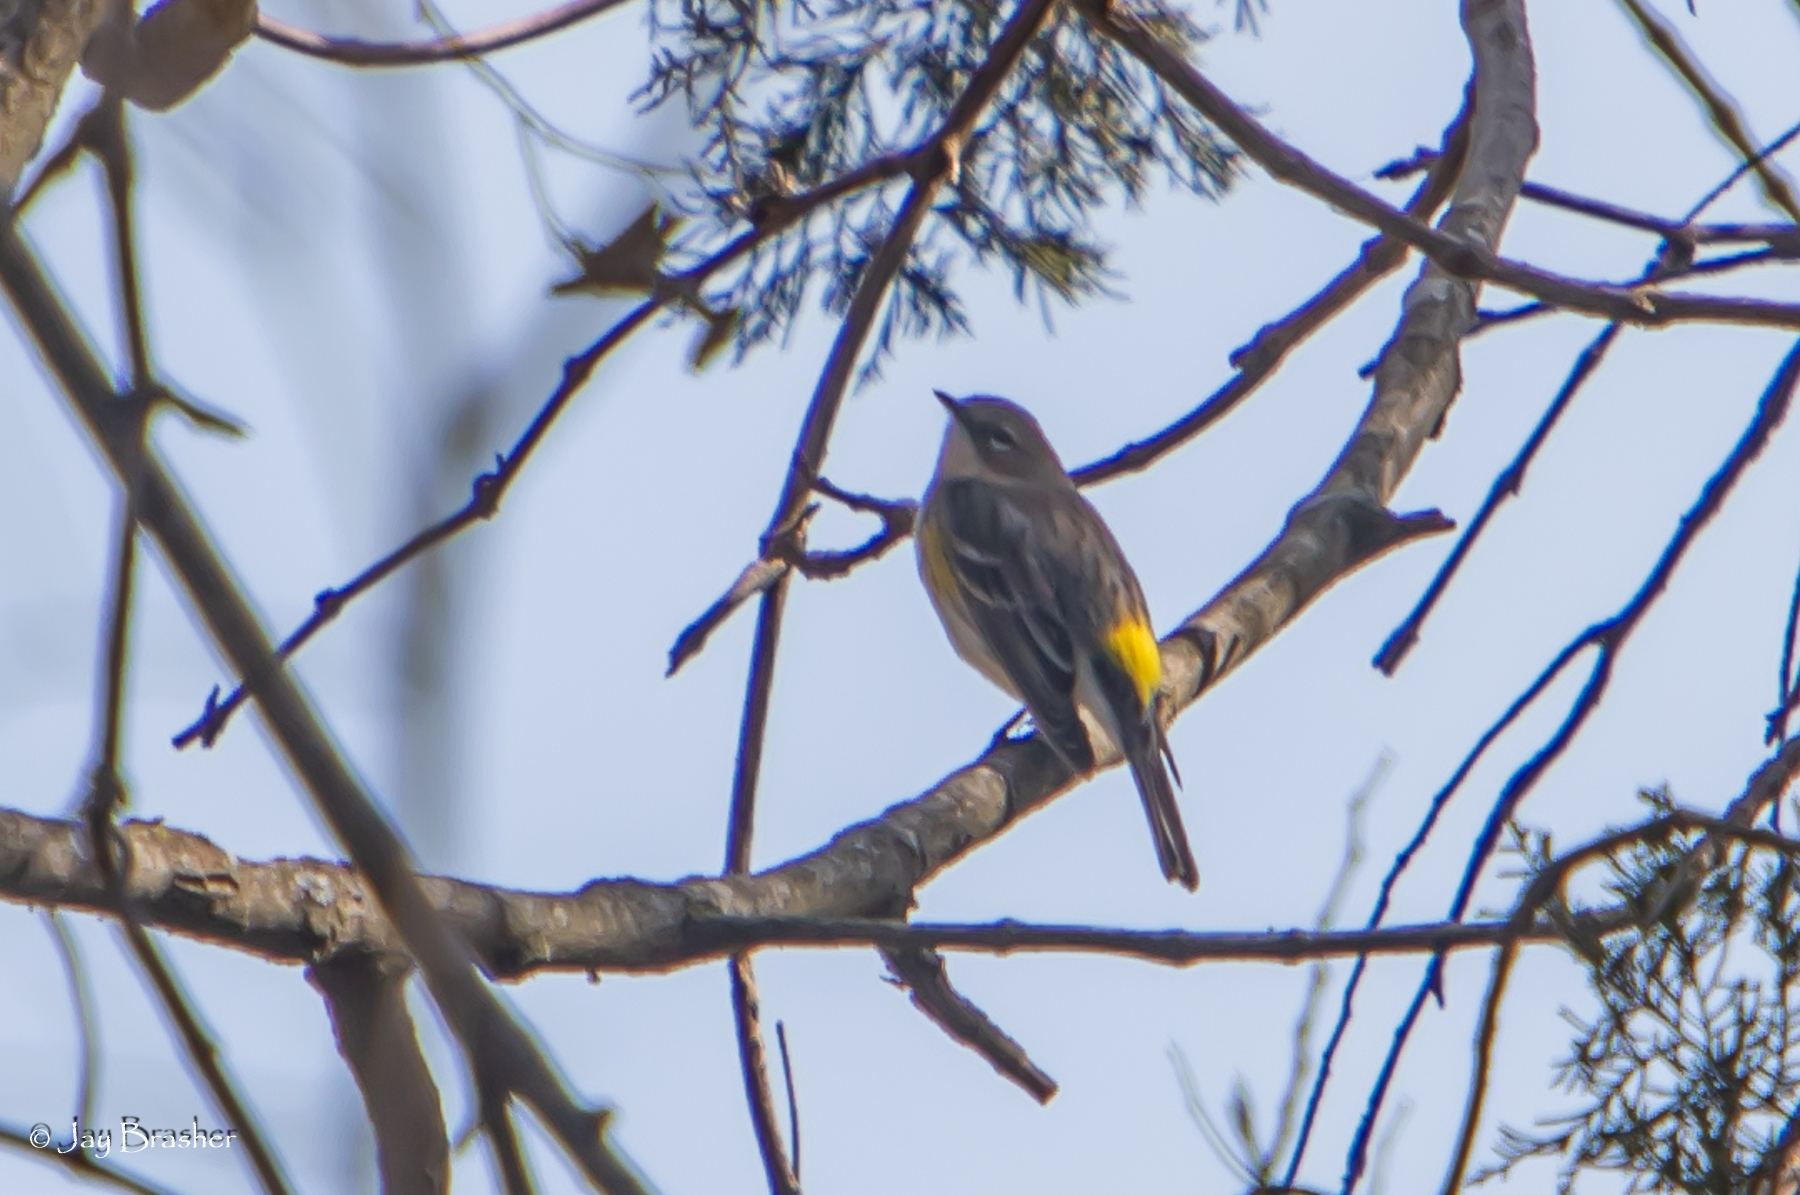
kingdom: Animalia
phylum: Chordata
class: Aves
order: Passeriformes
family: Parulidae
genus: Setophaga
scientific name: Setophaga coronata
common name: Myrtle warbler
